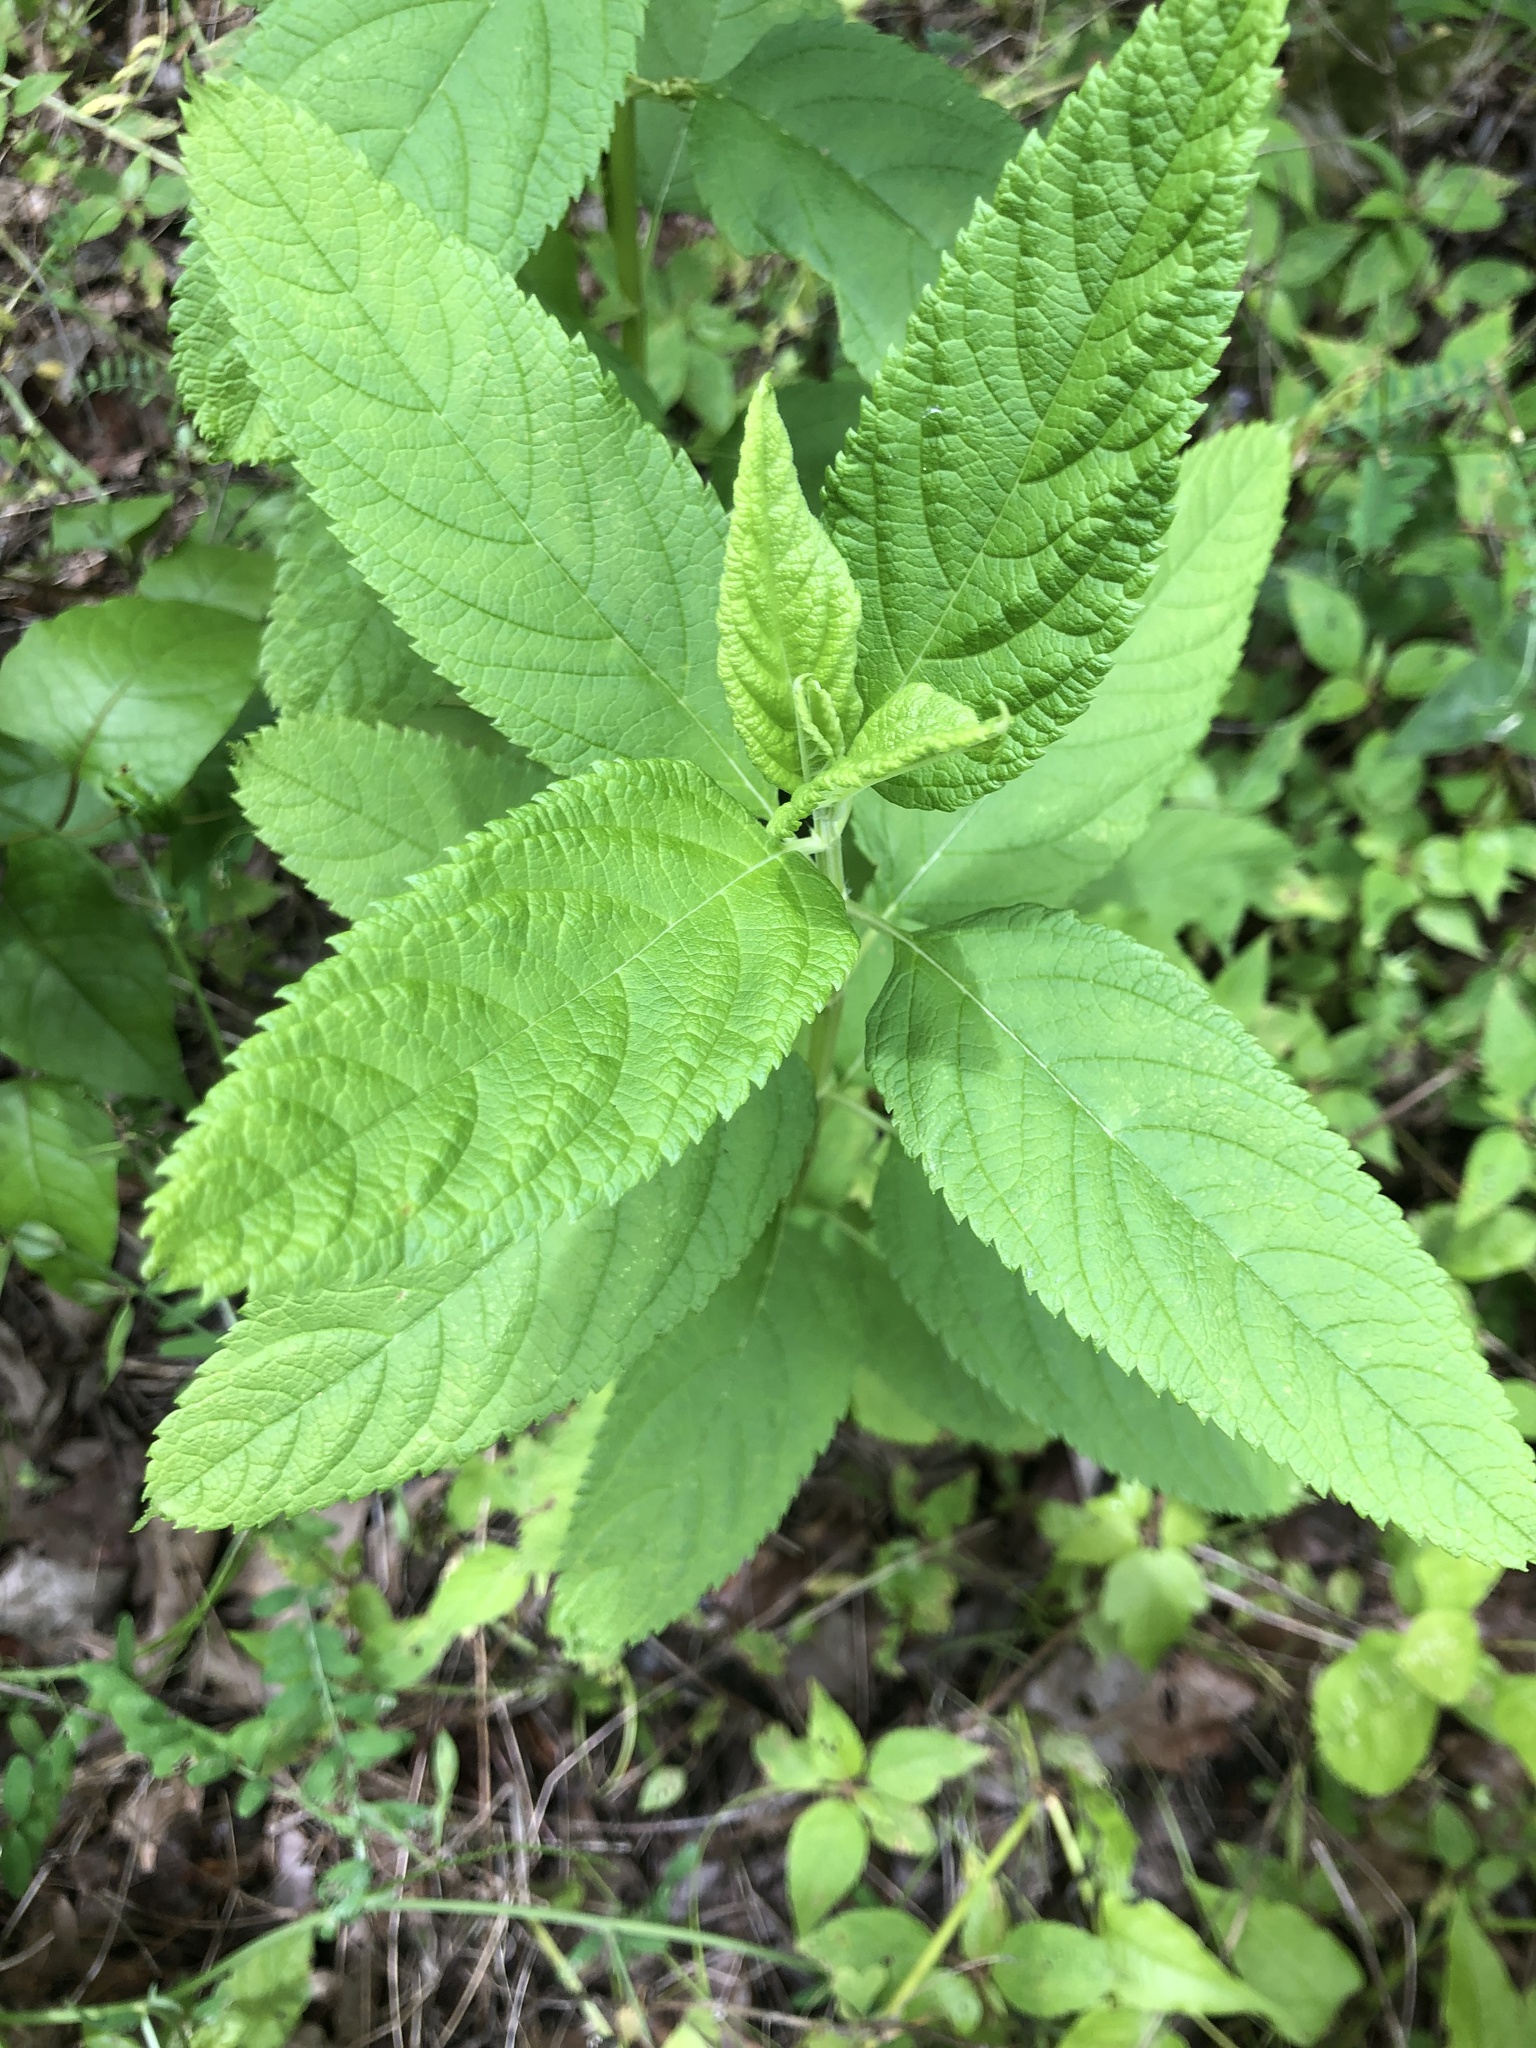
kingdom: Plantae
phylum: Tracheophyta
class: Magnoliopsida
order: Lamiales
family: Lamiaceae
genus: Teucrium
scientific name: Teucrium canadense
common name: American germander
